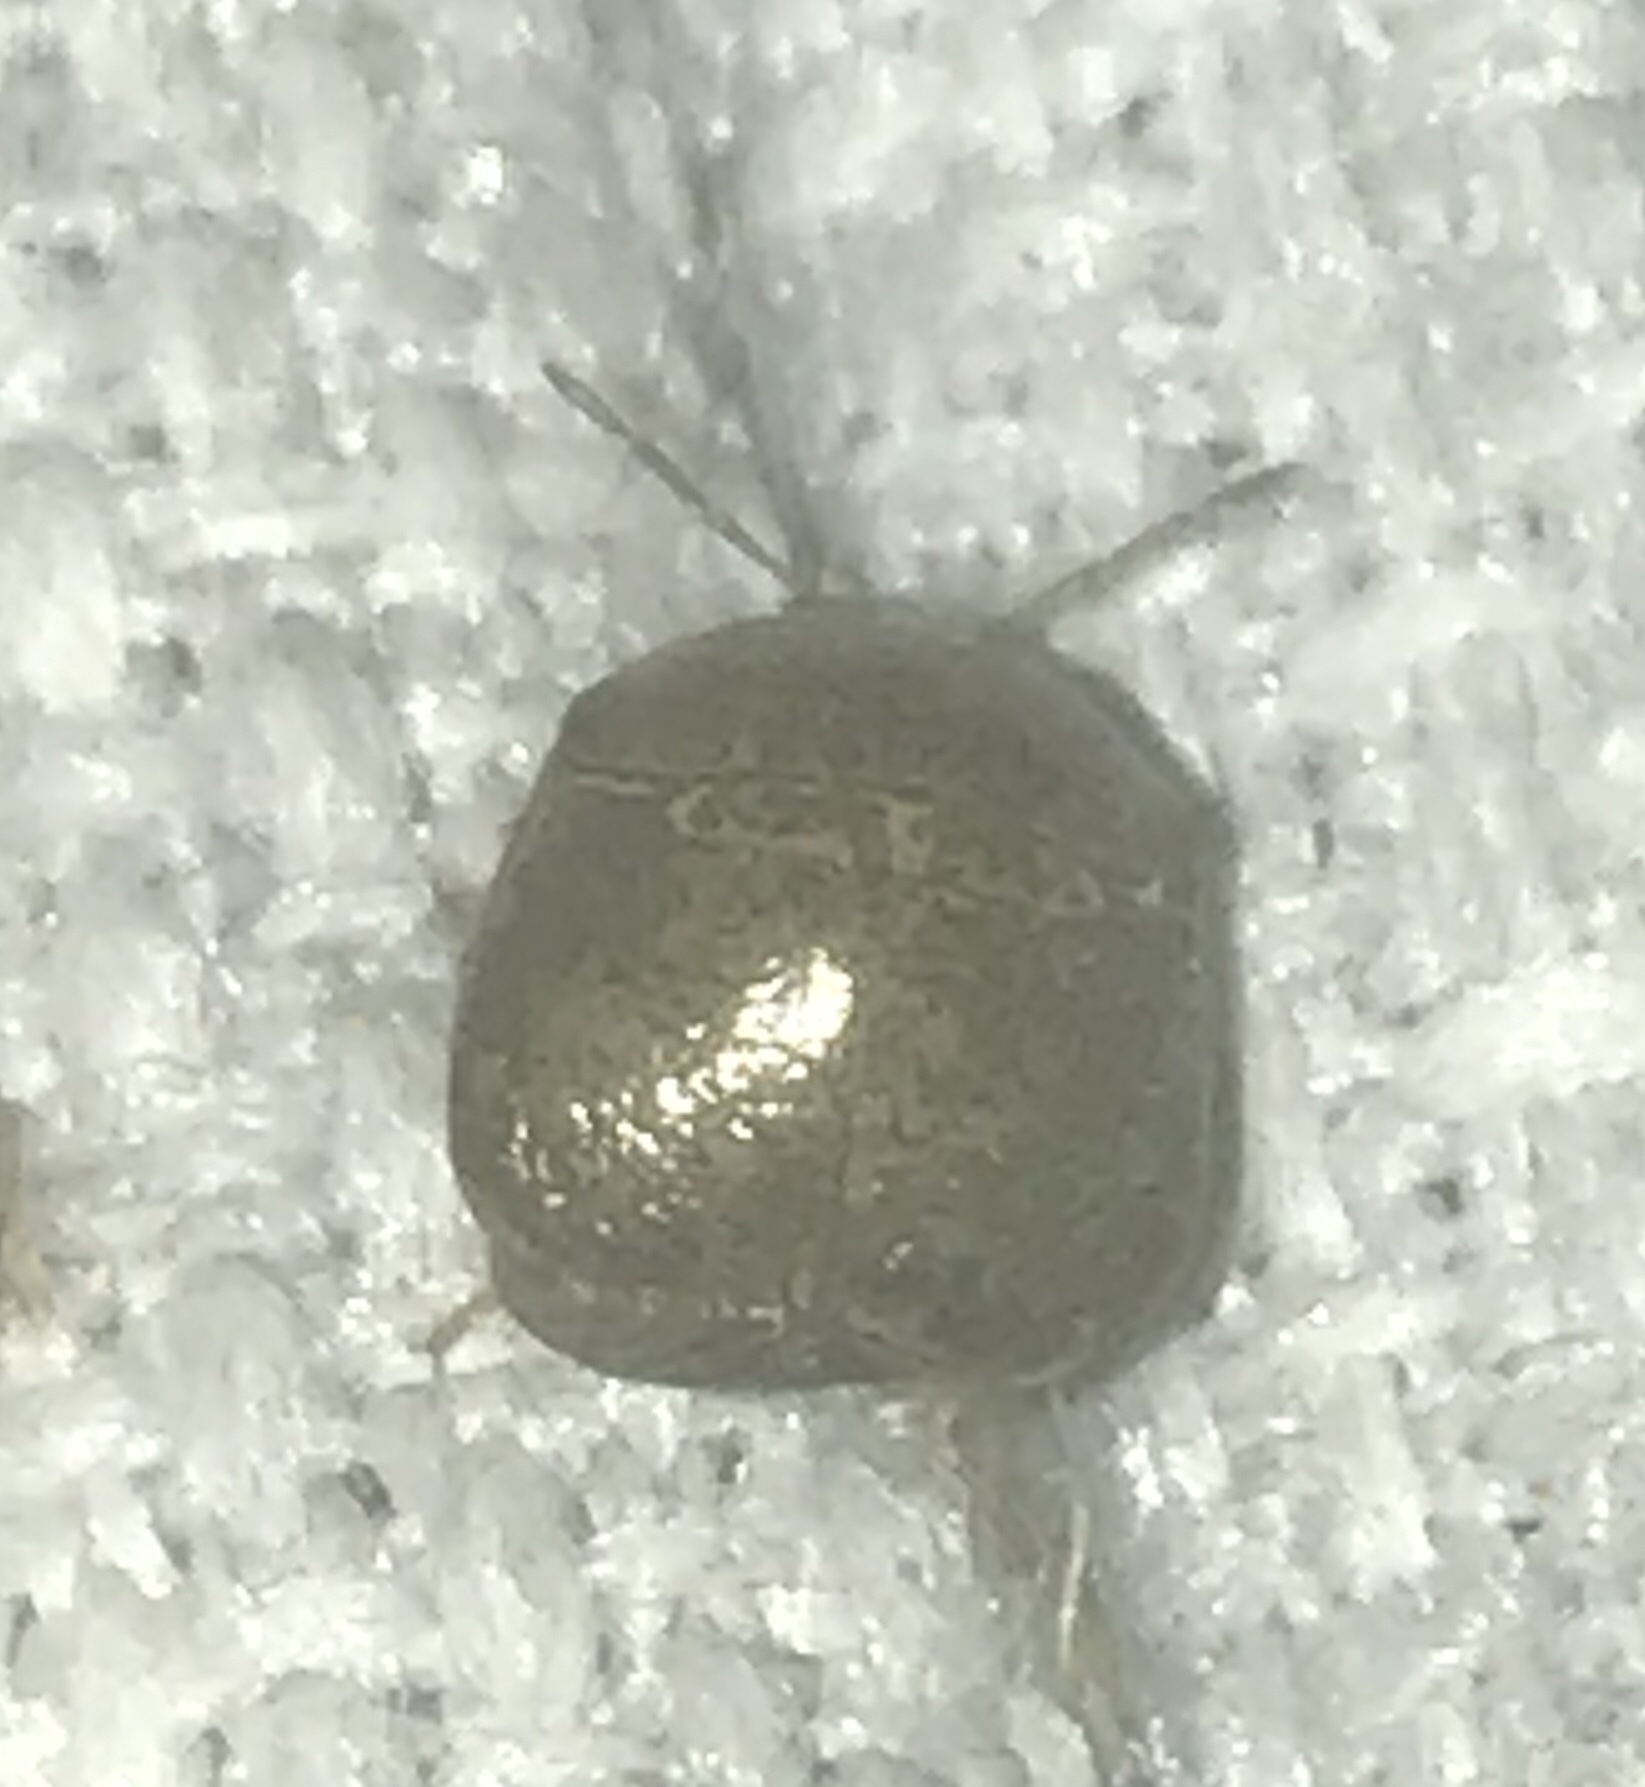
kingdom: Animalia
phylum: Arthropoda
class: Insecta
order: Hemiptera
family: Plataspidae
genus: Megacopta
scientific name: Megacopta cribraria
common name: Bean plataspid
